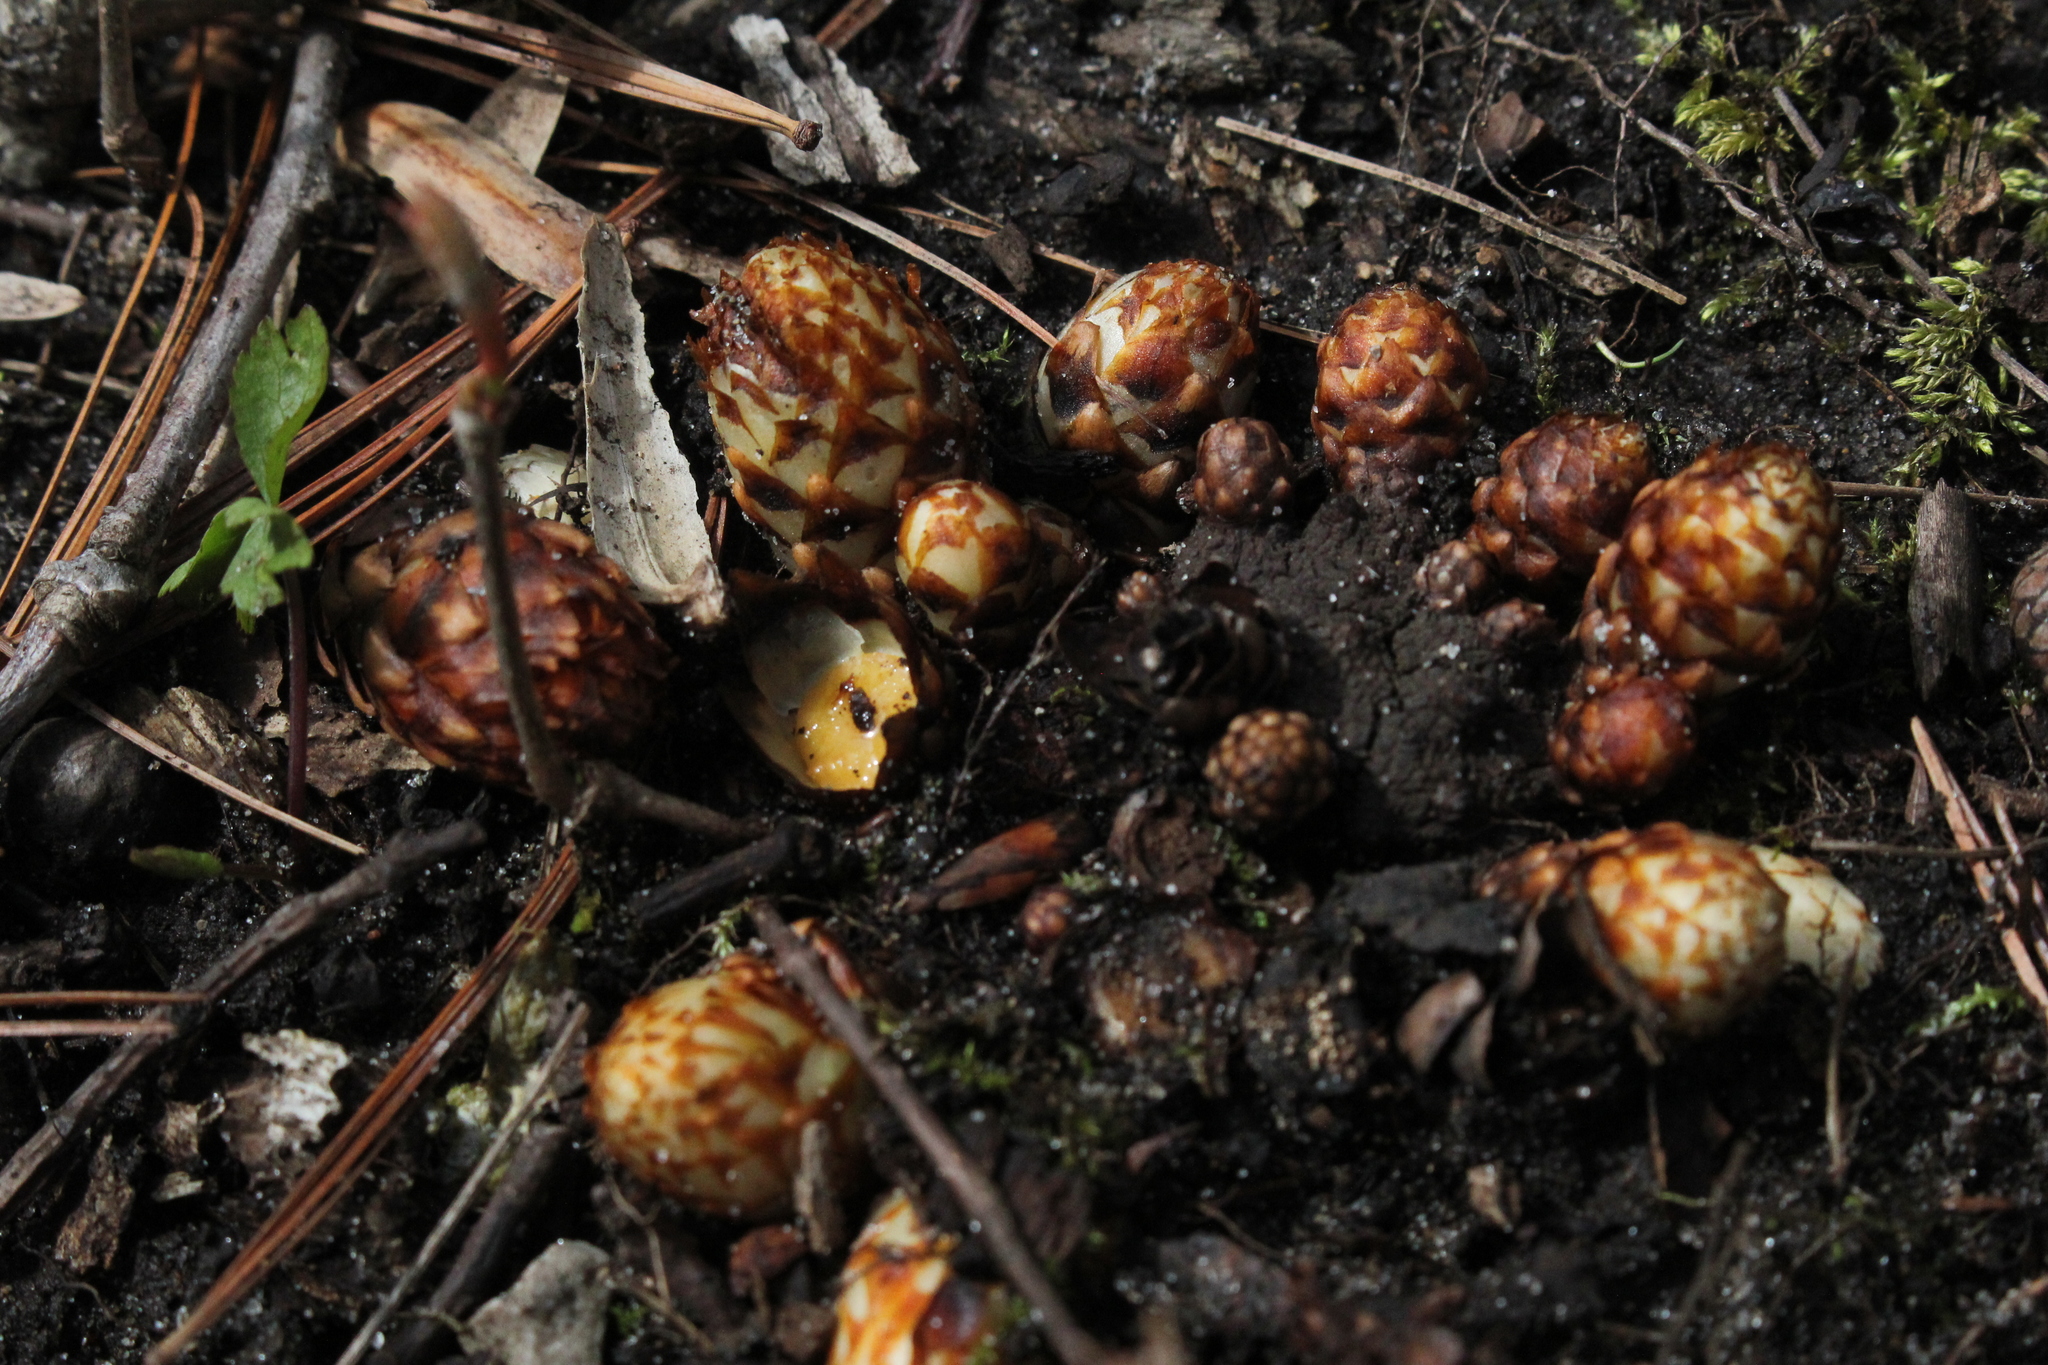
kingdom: Plantae
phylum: Tracheophyta
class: Magnoliopsida
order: Lamiales
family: Orobanchaceae
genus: Conopholis
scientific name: Conopholis americana
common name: American cancer-root
